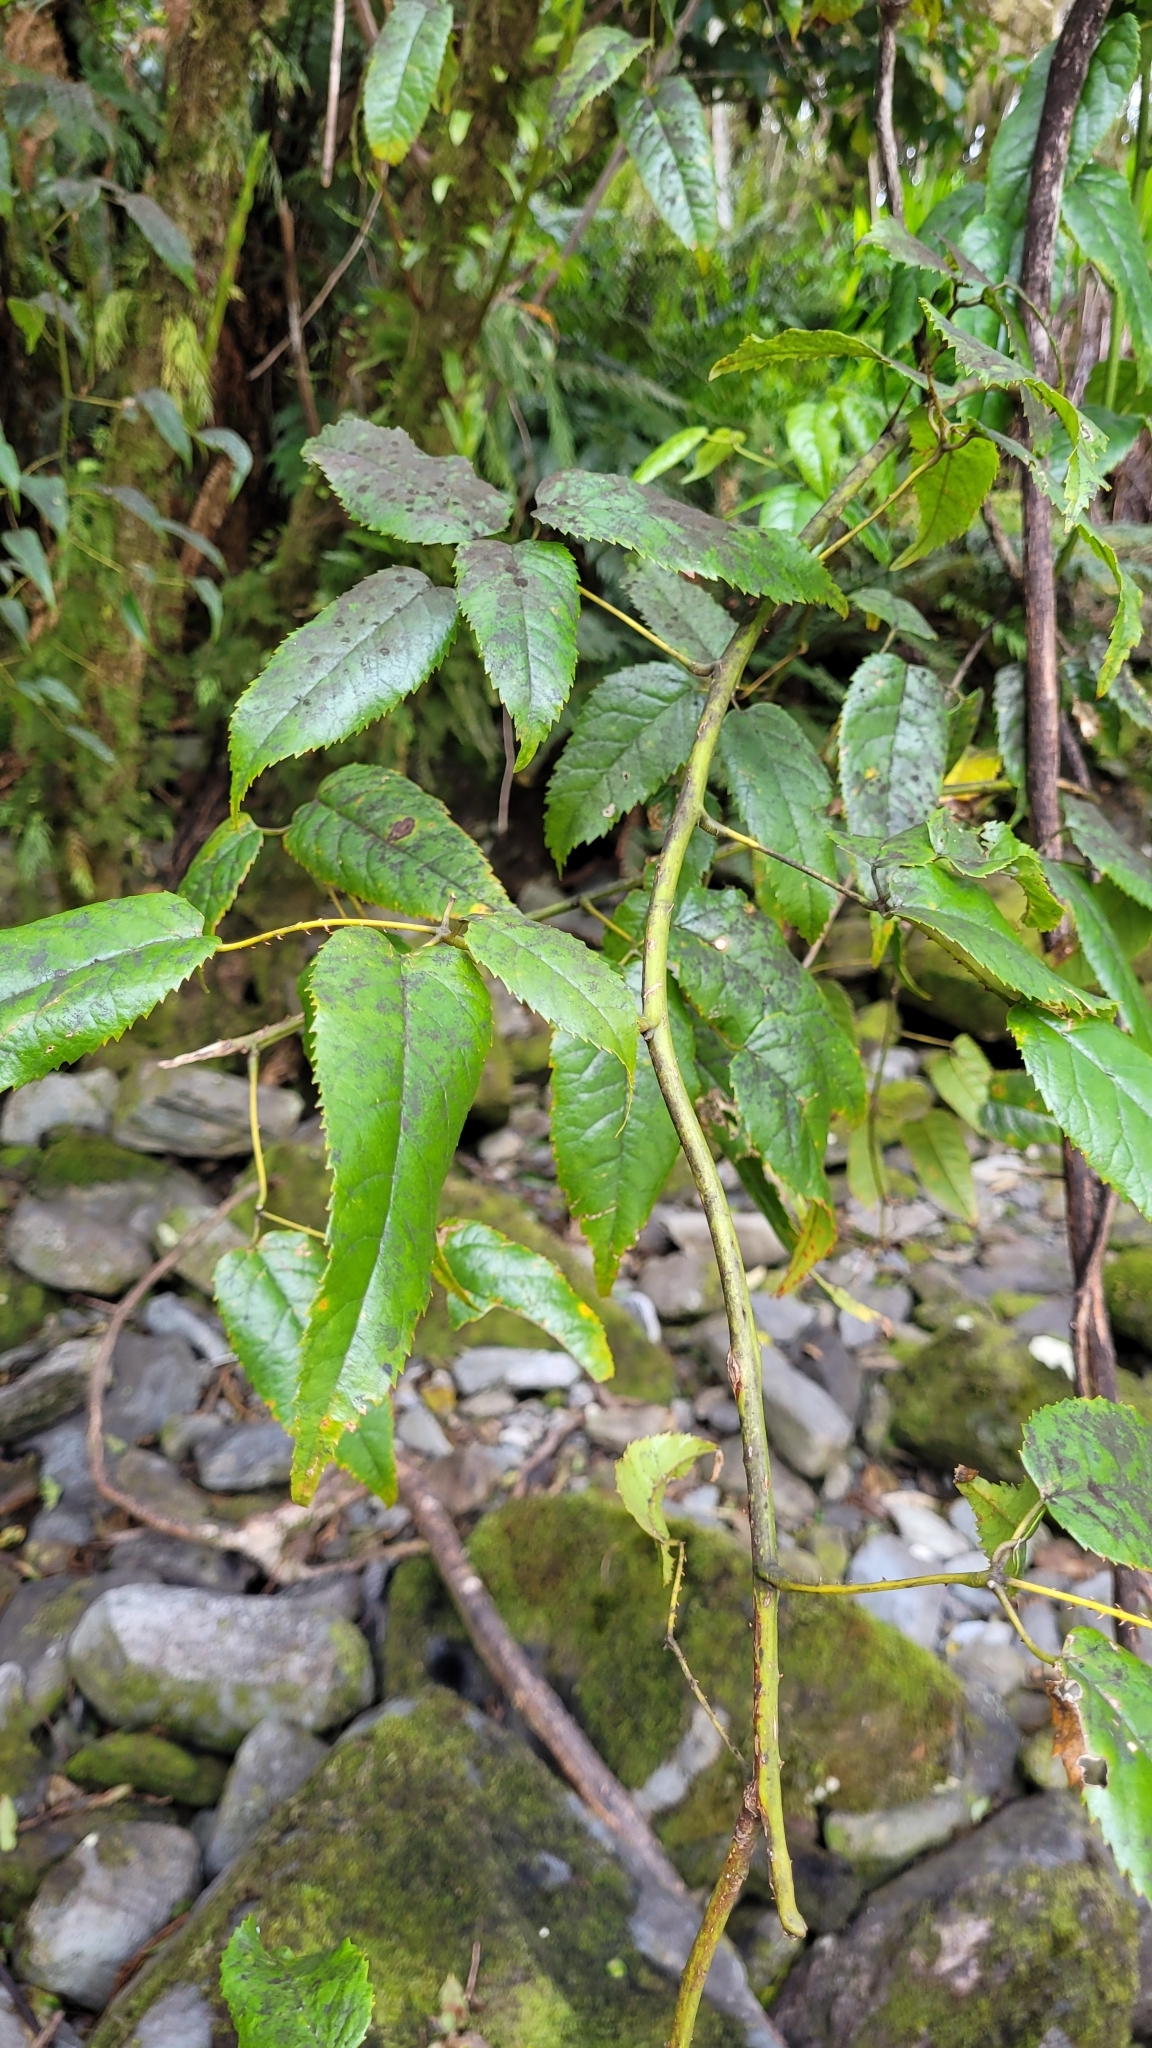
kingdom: Plantae
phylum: Tracheophyta
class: Magnoliopsida
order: Rosales
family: Rosaceae
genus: Rubus
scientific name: Rubus cissoides
